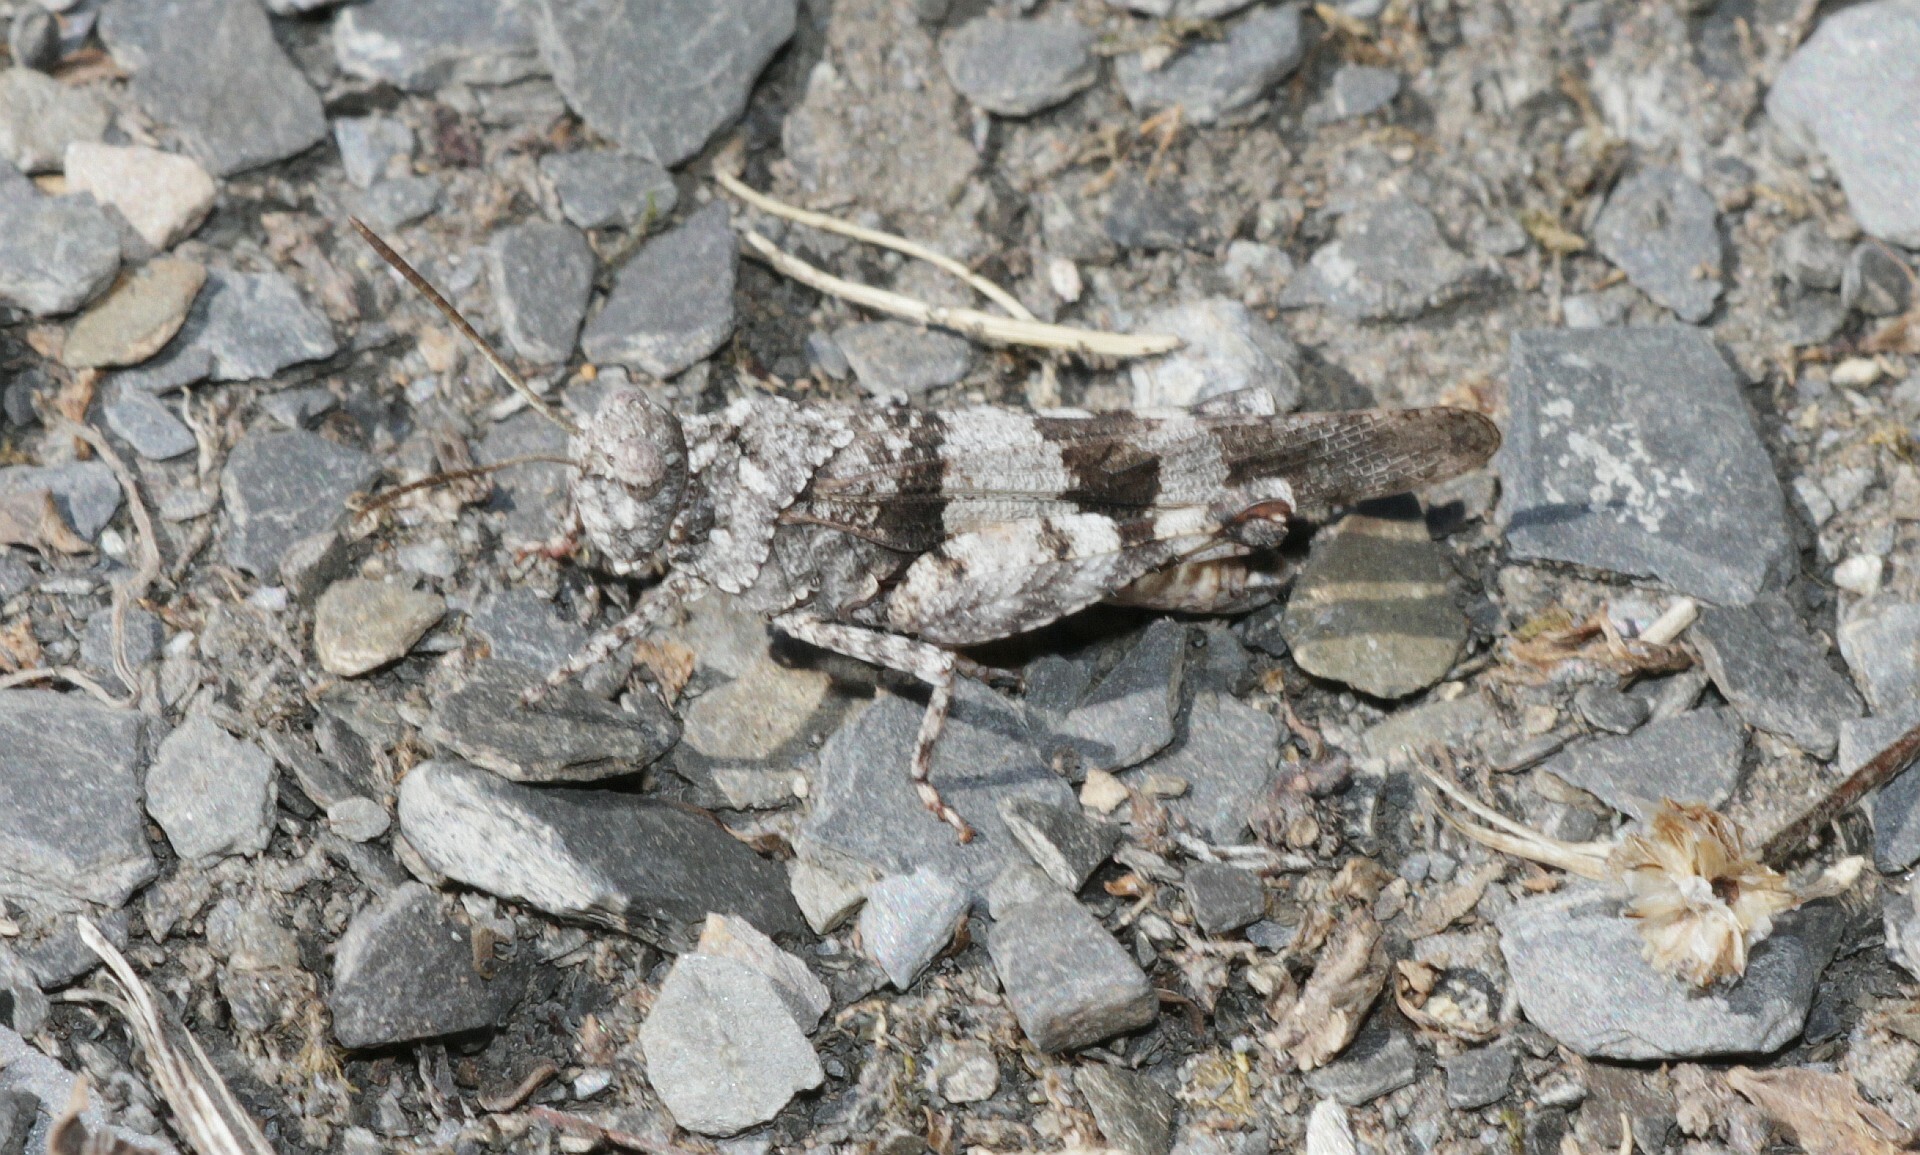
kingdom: Animalia
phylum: Arthropoda
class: Insecta
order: Orthoptera
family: Acrididae
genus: Oedipoda
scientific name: Oedipoda caerulescens
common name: Blue-winged grasshopper
